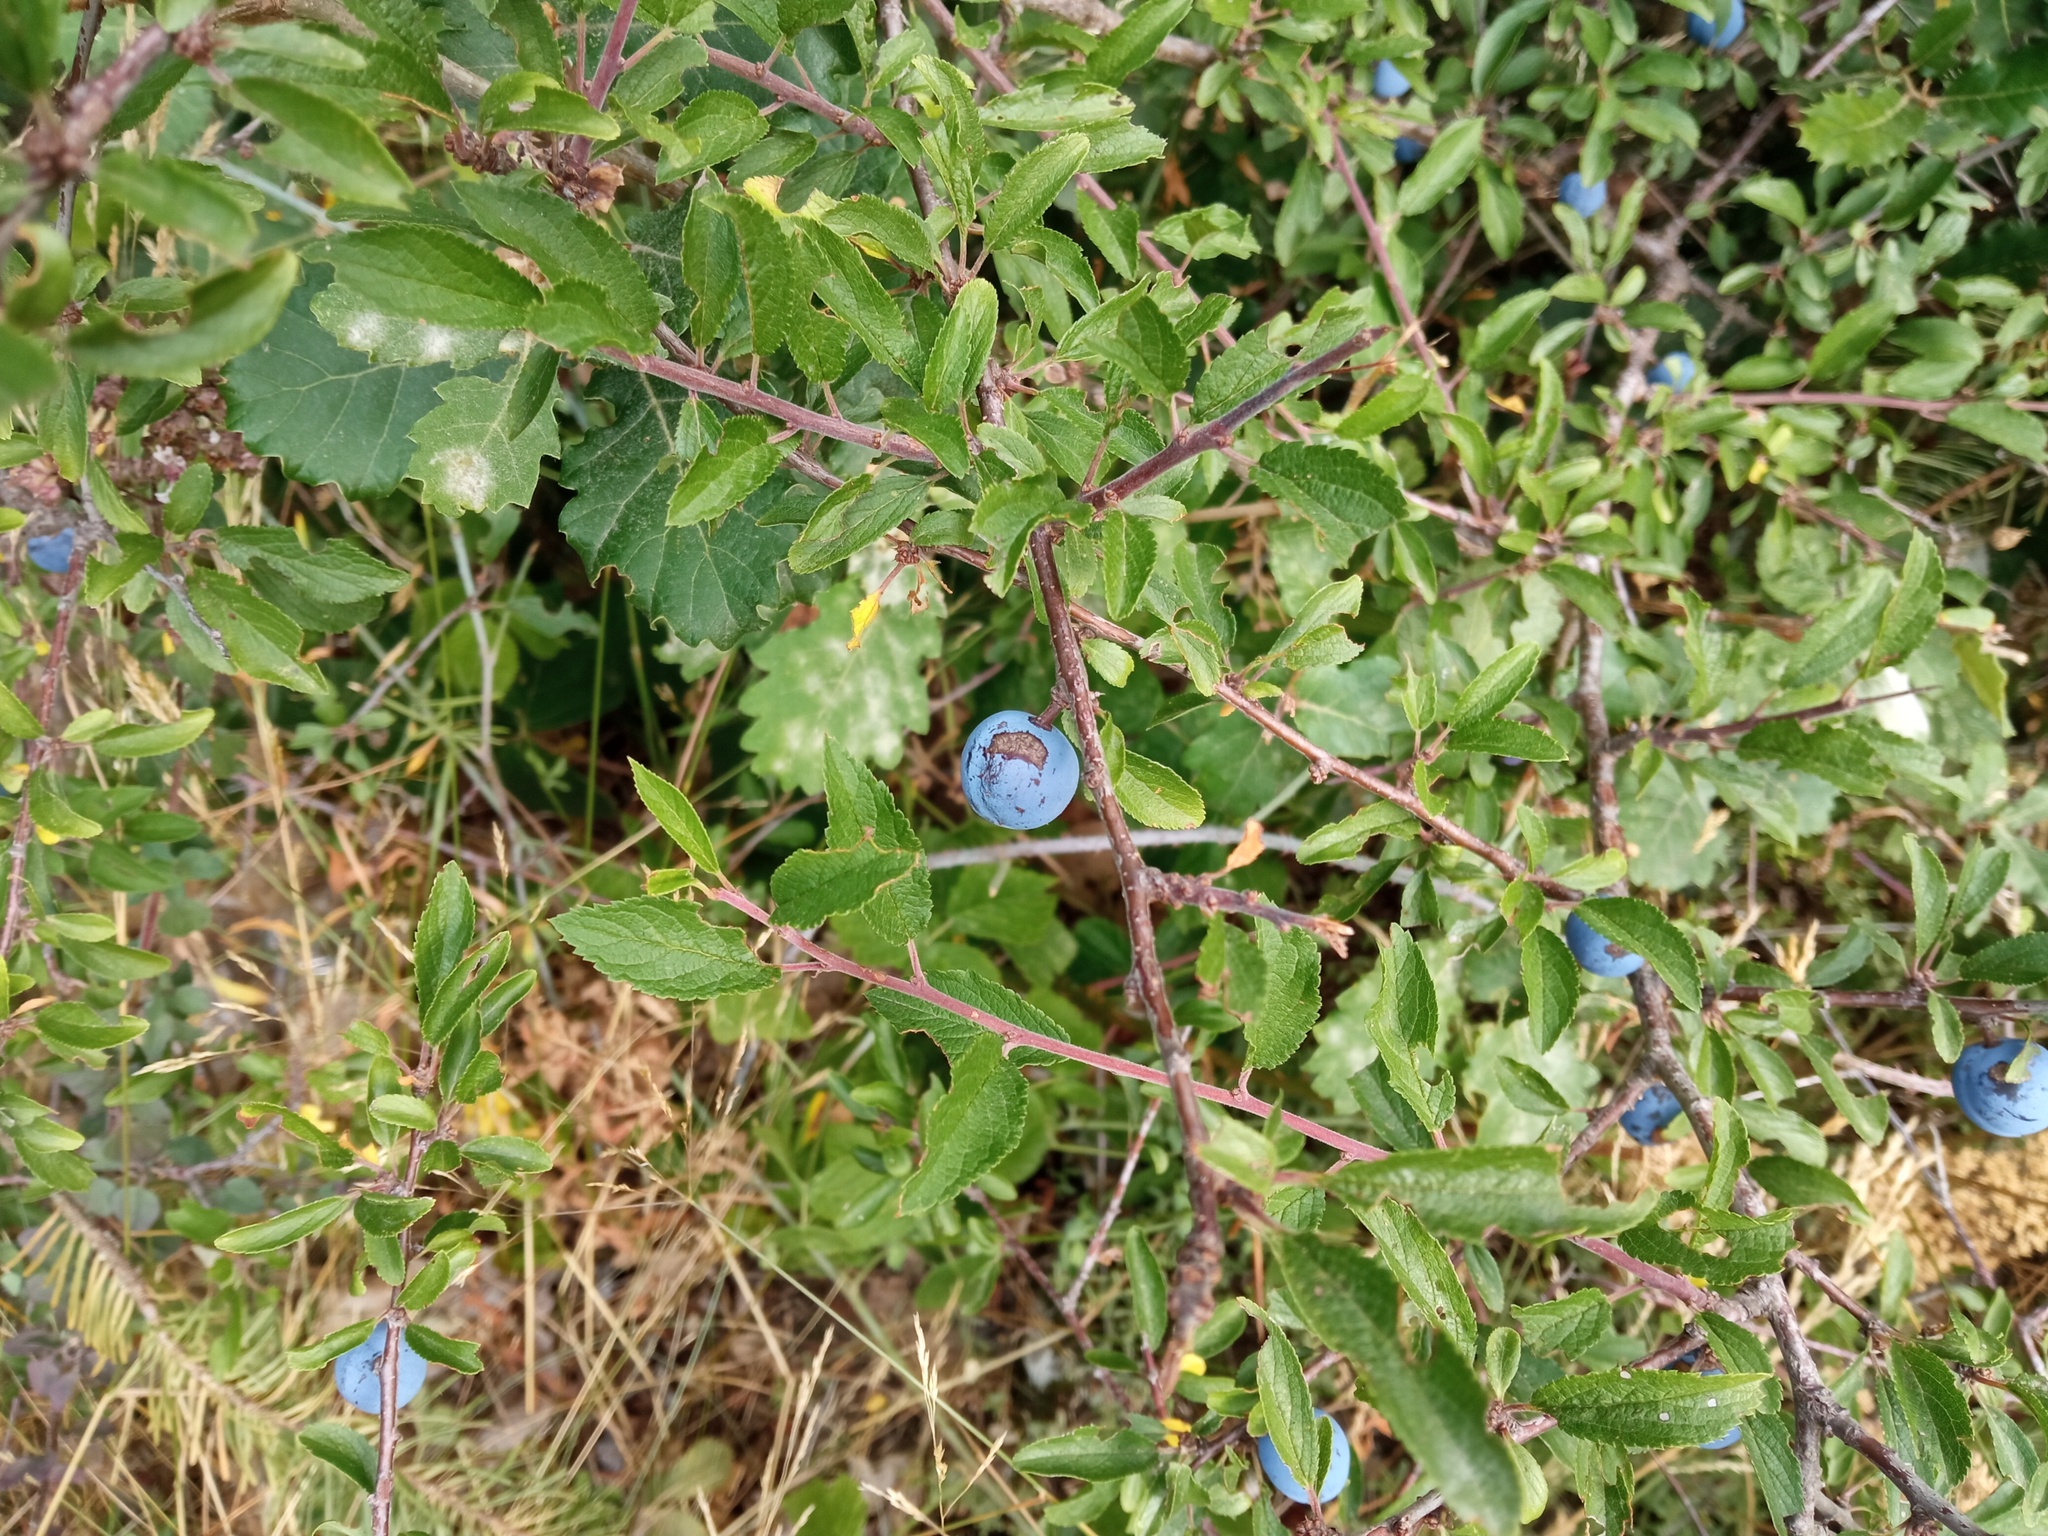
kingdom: Plantae
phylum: Tracheophyta
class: Magnoliopsida
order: Rosales
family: Rosaceae
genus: Prunus
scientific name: Prunus spinosa
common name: Blackthorn
